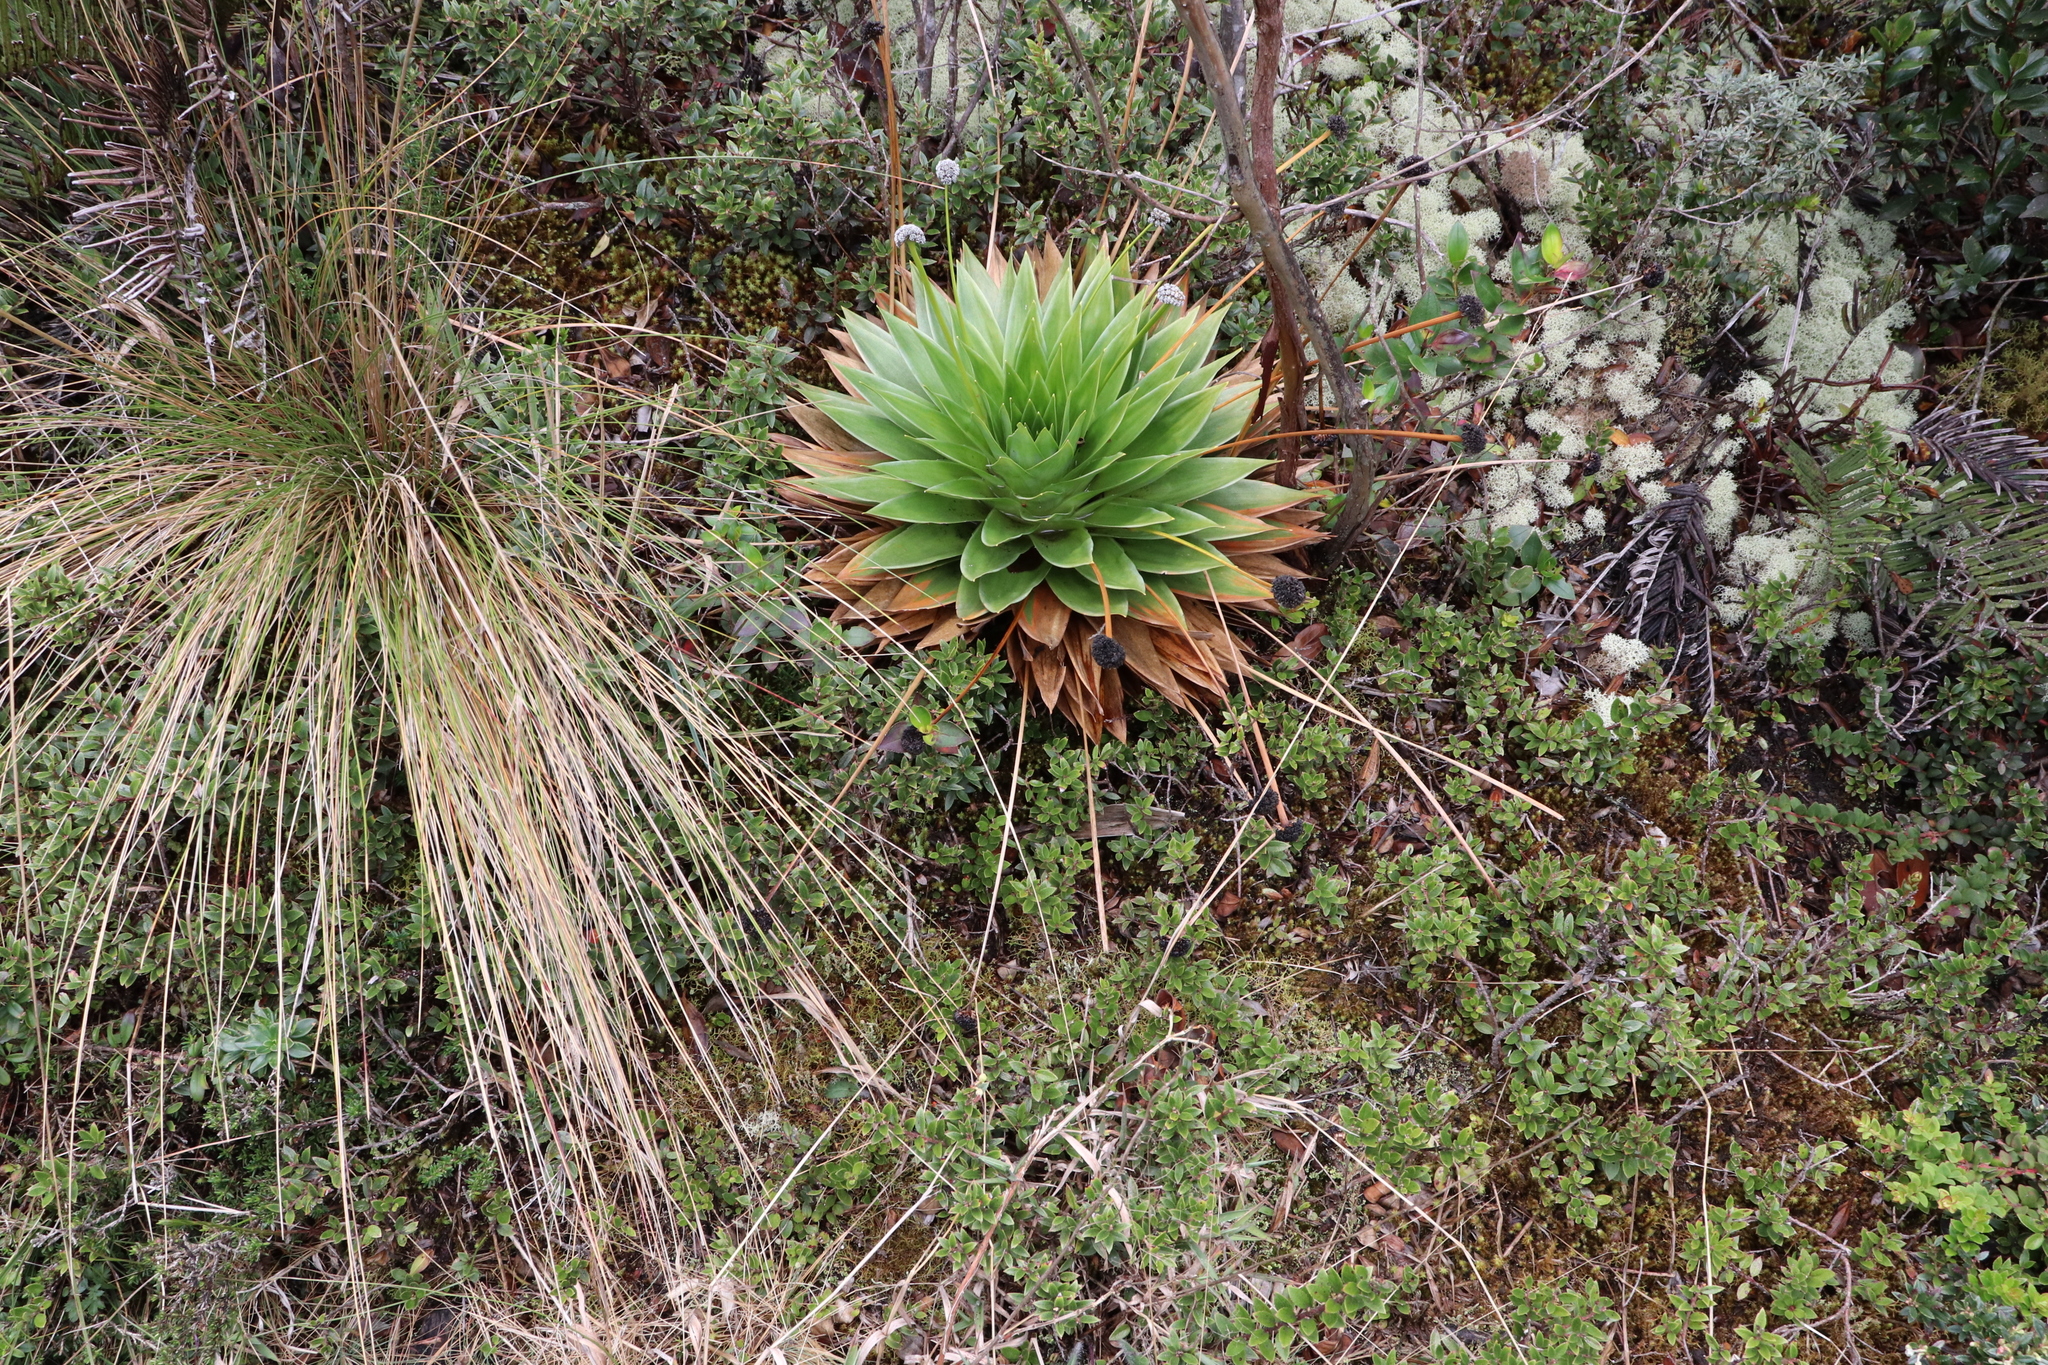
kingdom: Plantae
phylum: Tracheophyta
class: Liliopsida
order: Poales
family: Eriocaulaceae
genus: Paepalanthus
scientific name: Paepalanthus alpinus
